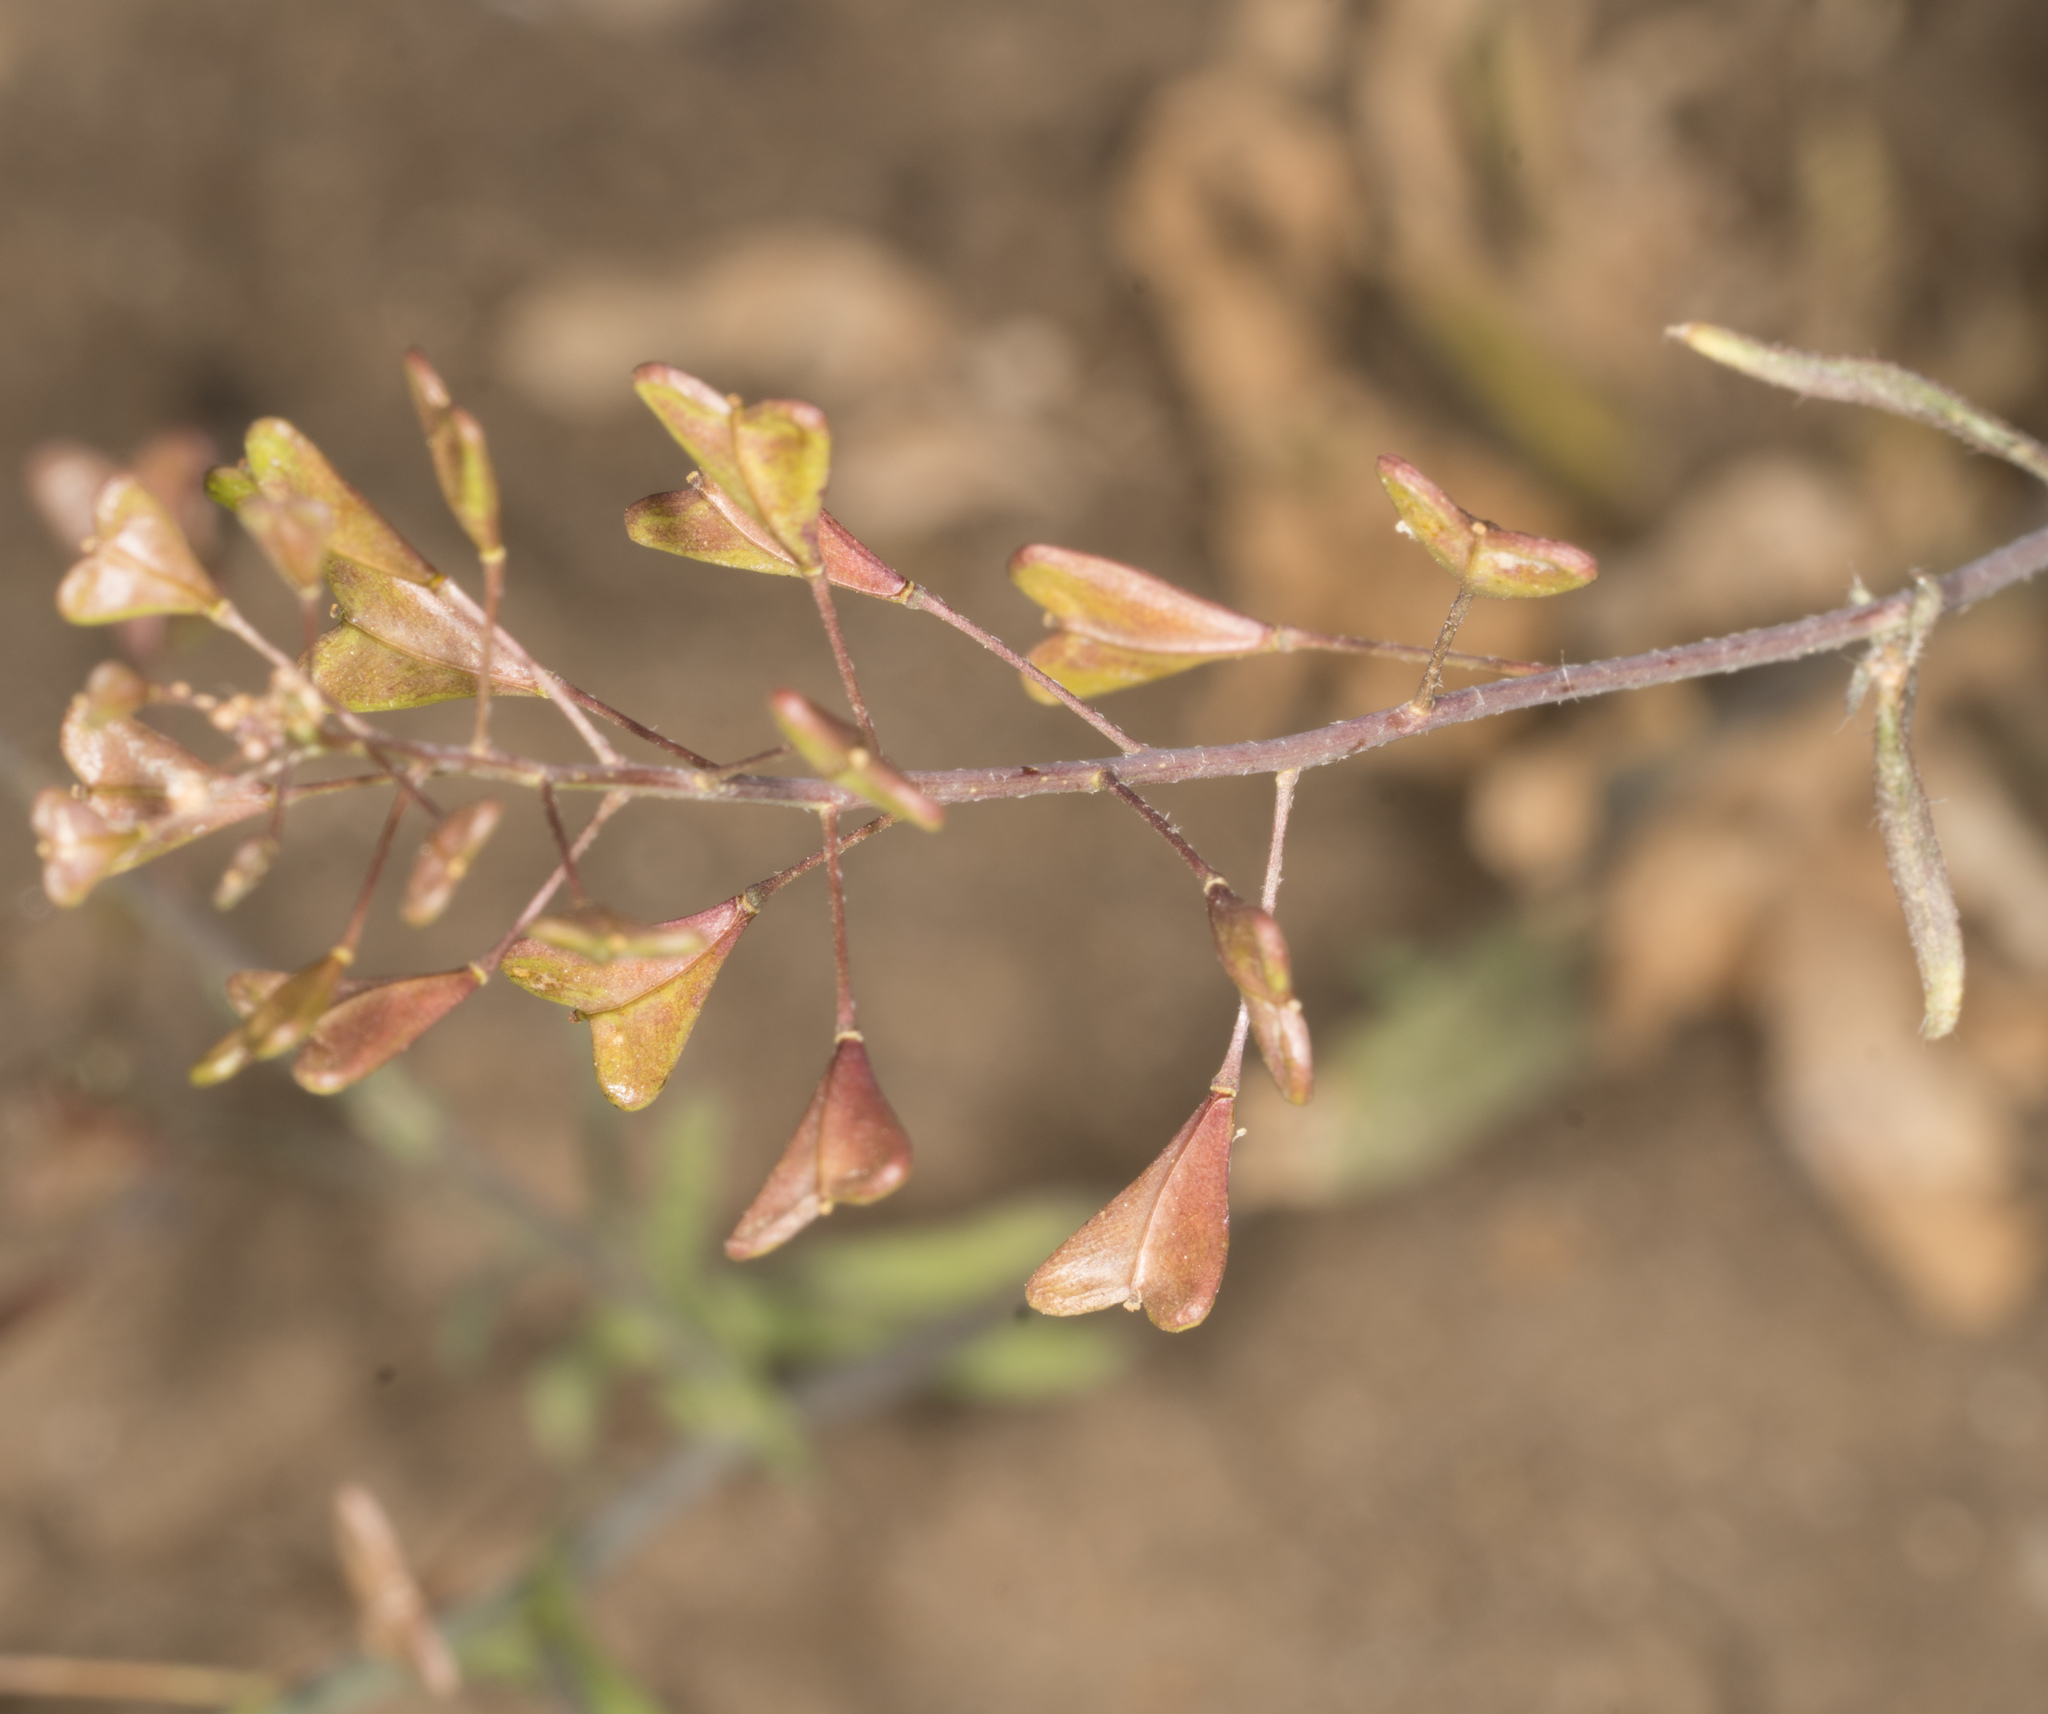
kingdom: Plantae
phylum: Tracheophyta
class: Magnoliopsida
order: Brassicales
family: Brassicaceae
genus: Capsella
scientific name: Capsella bursa-pastoris
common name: Shepherd's purse
